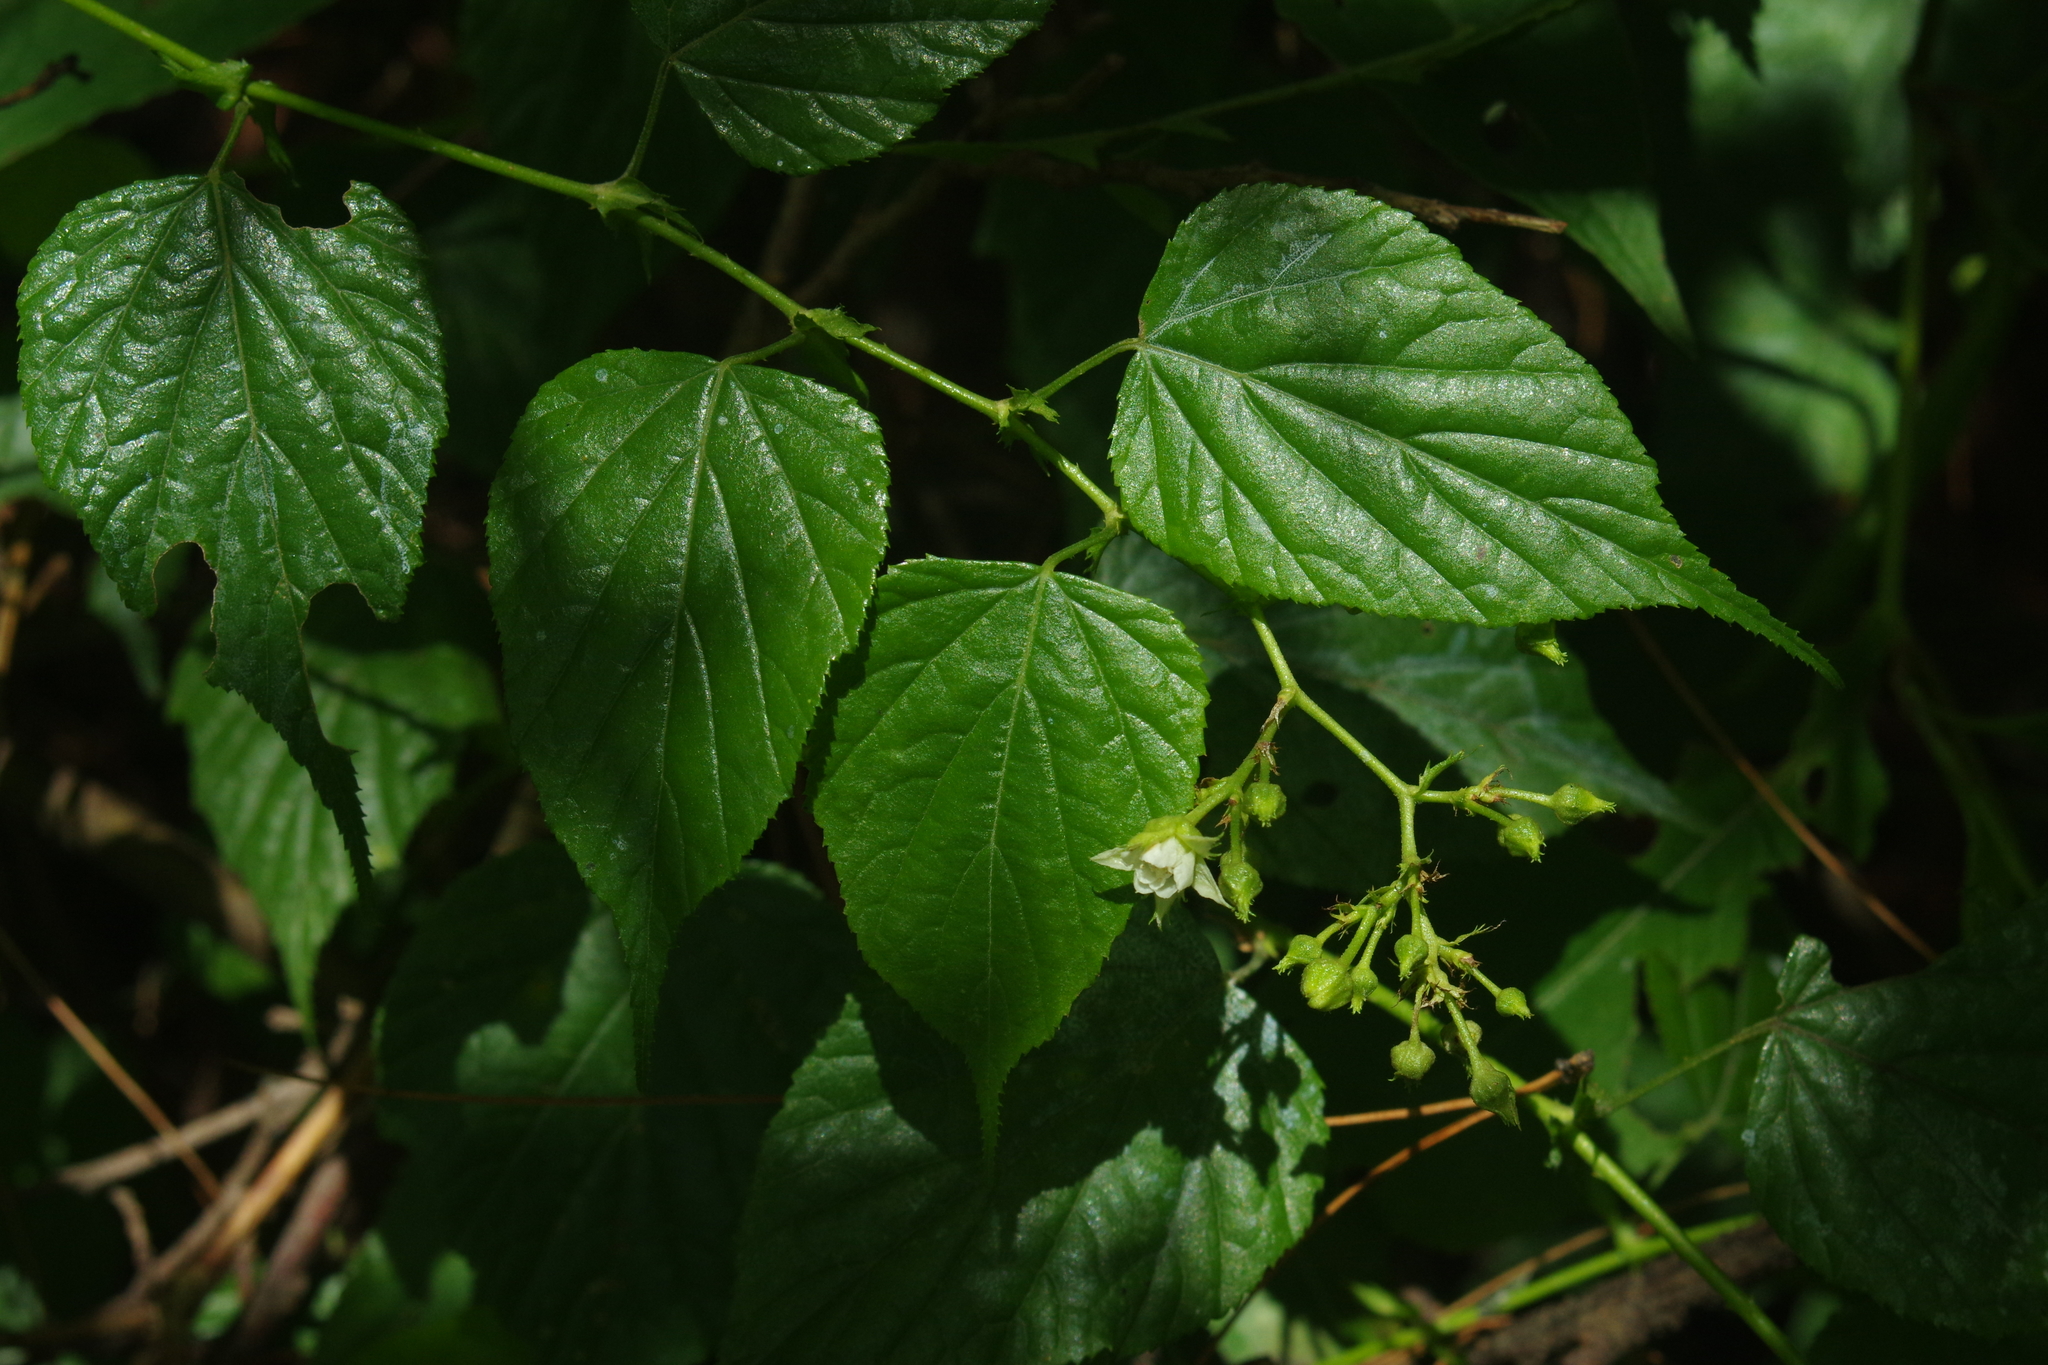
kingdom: Plantae
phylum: Tracheophyta
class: Magnoliopsida
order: Rosales
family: Rosaceae
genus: Rubus
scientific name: Rubus lambertianus
